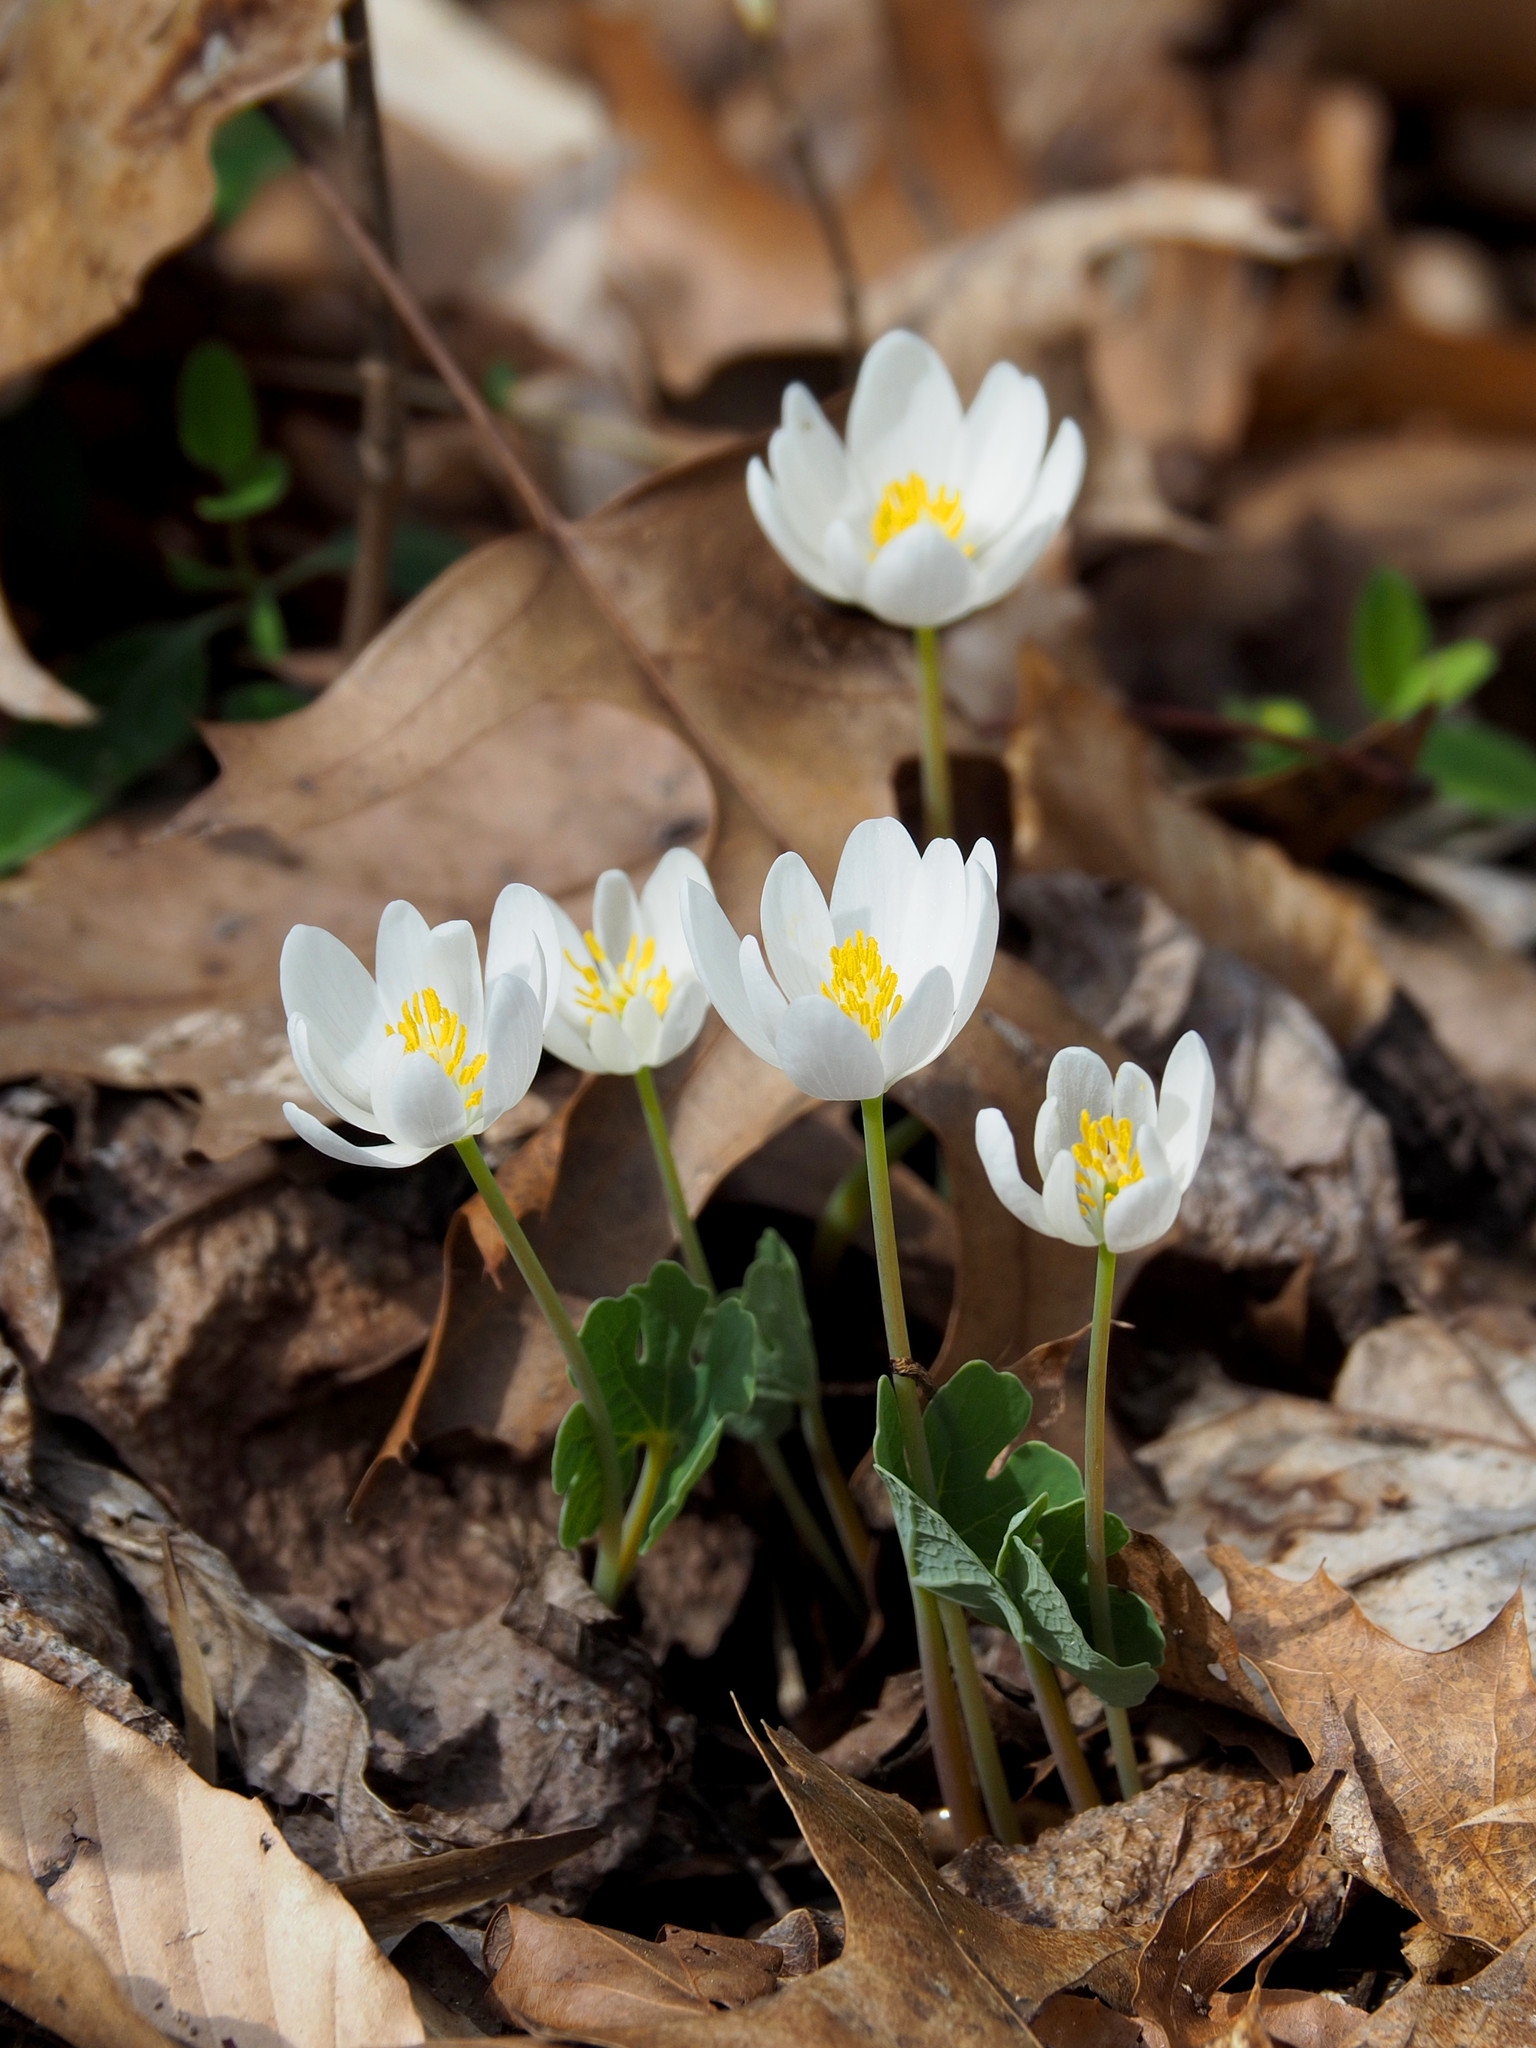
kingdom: Plantae
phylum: Tracheophyta
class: Magnoliopsida
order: Ranunculales
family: Papaveraceae
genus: Sanguinaria
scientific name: Sanguinaria canadensis
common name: Bloodroot
